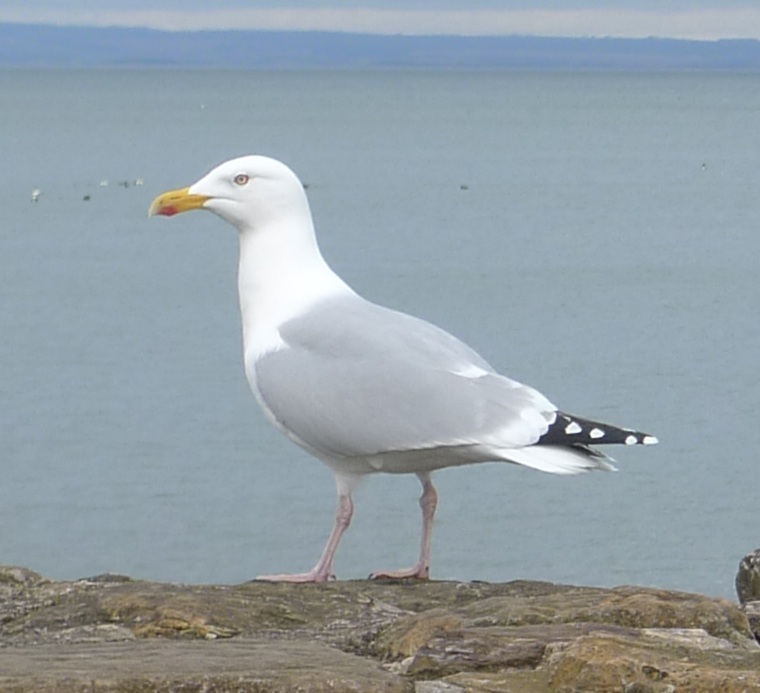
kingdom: Animalia
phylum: Chordata
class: Aves
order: Charadriiformes
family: Laridae
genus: Larus
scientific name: Larus argentatus
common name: Herring gull
